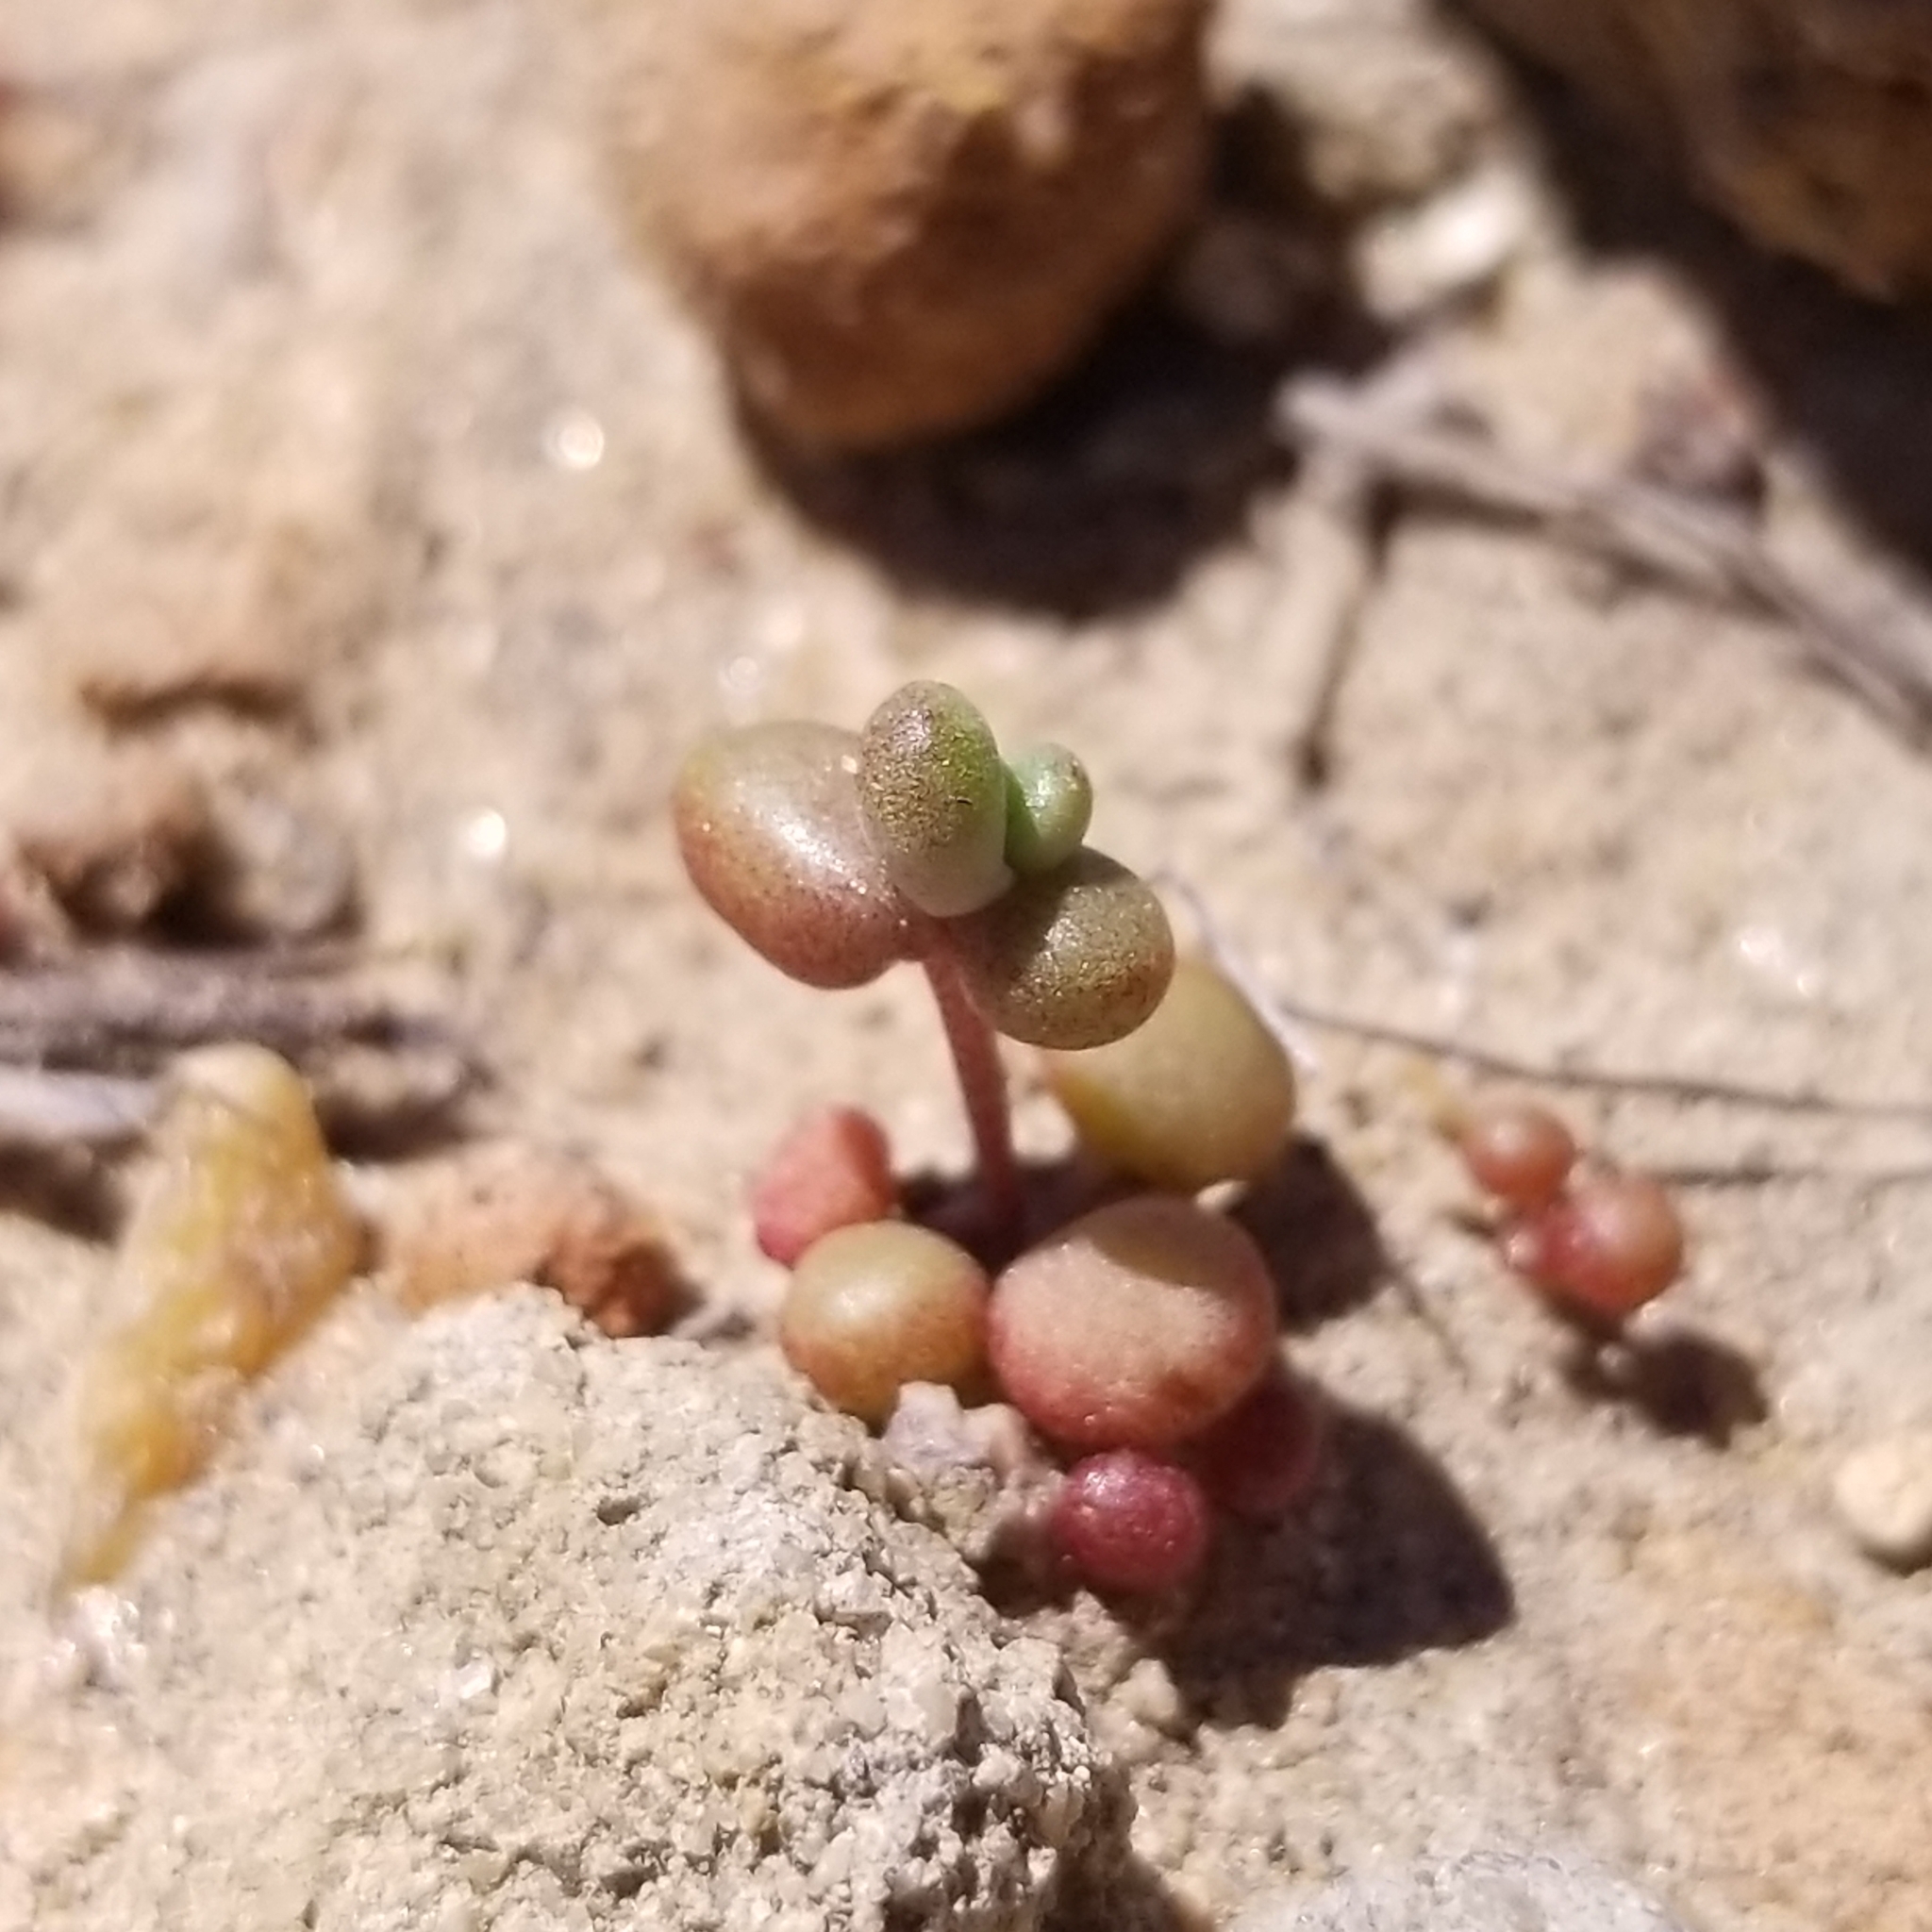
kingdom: Plantae
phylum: Tracheophyta
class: Magnoliopsida
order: Saxifragales
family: Crassulaceae
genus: Dudleya
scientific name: Dudleya blochmaniae
